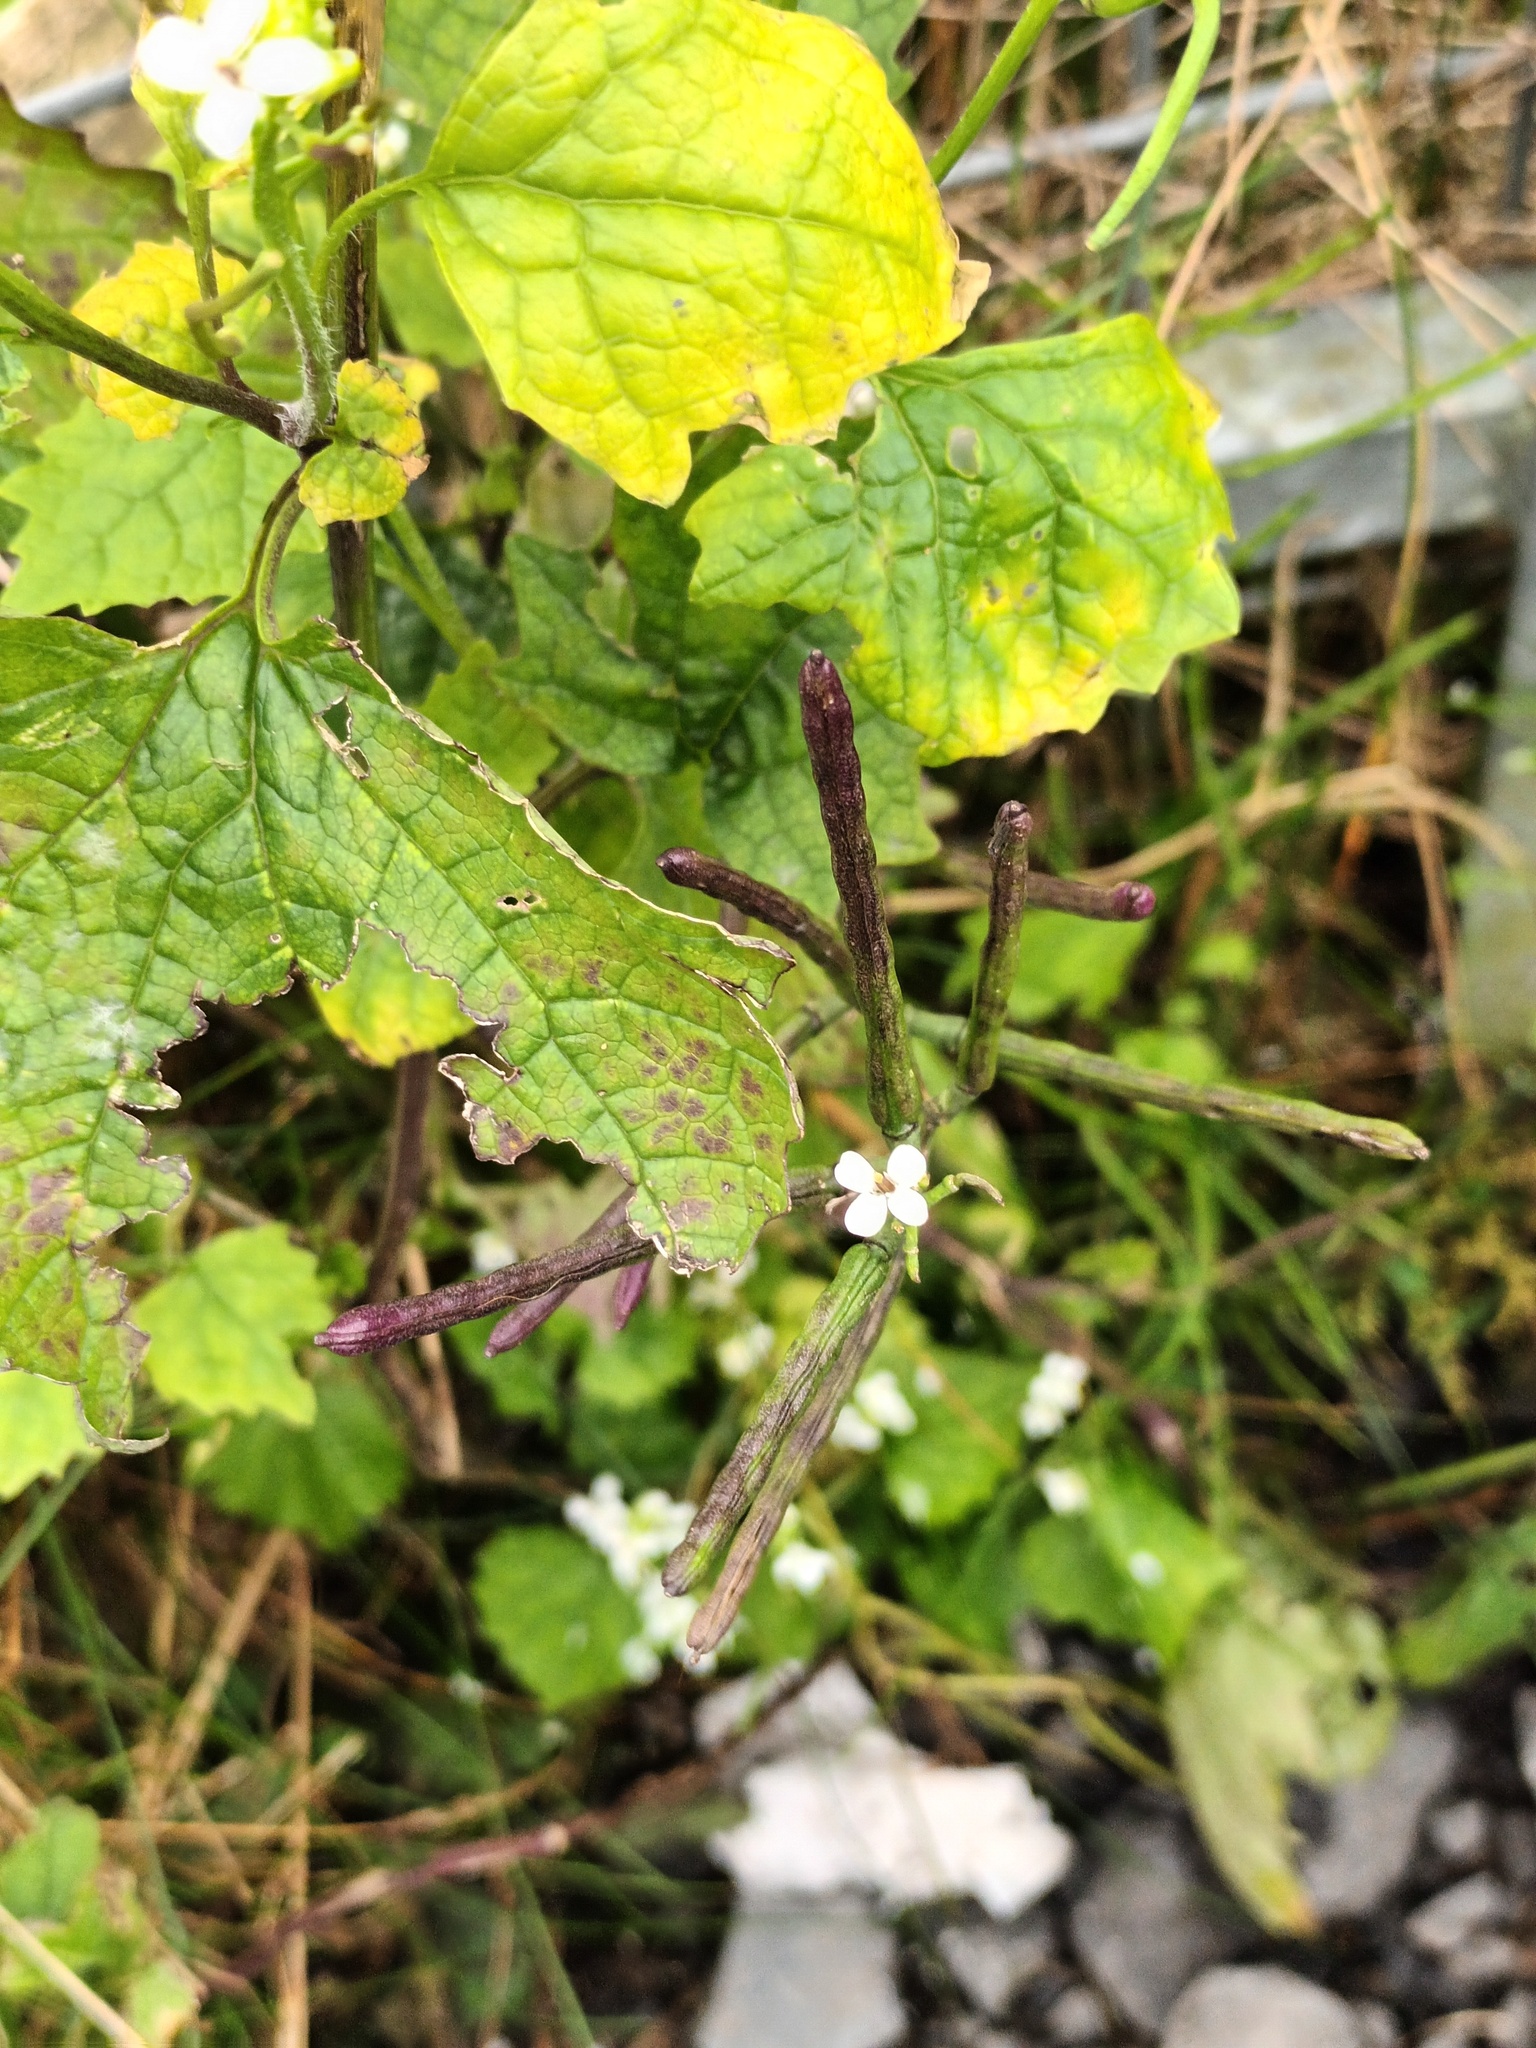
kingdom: Plantae
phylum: Tracheophyta
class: Magnoliopsida
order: Brassicales
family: Brassicaceae
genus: Alliaria
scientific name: Alliaria petiolata
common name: Garlic mustard
